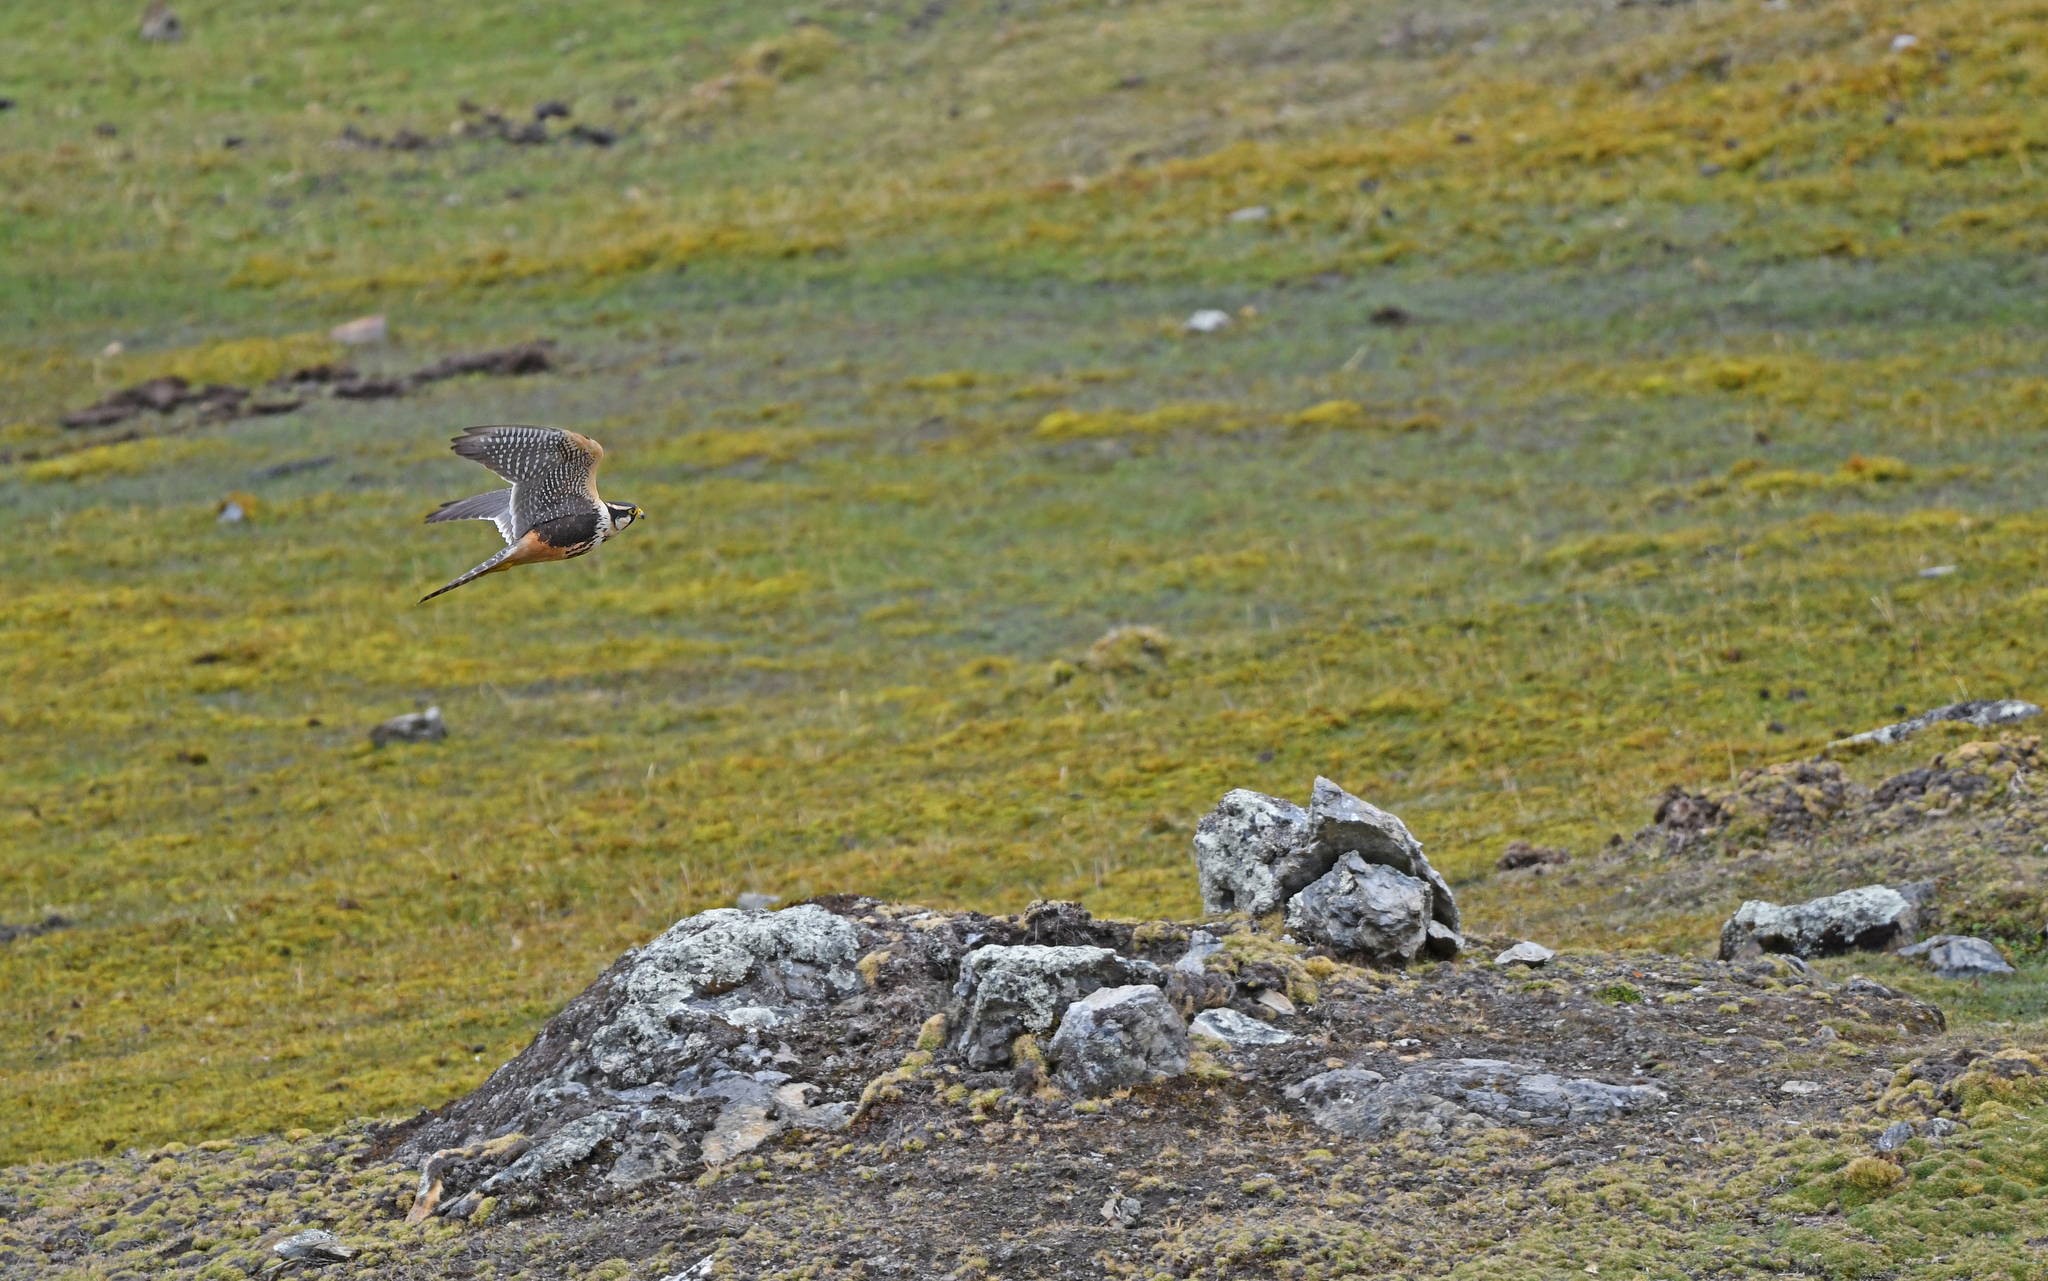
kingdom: Animalia
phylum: Chordata
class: Aves
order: Falconiformes
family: Falconidae
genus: Falco
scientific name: Falco femoralis
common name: Aplomado falcon
